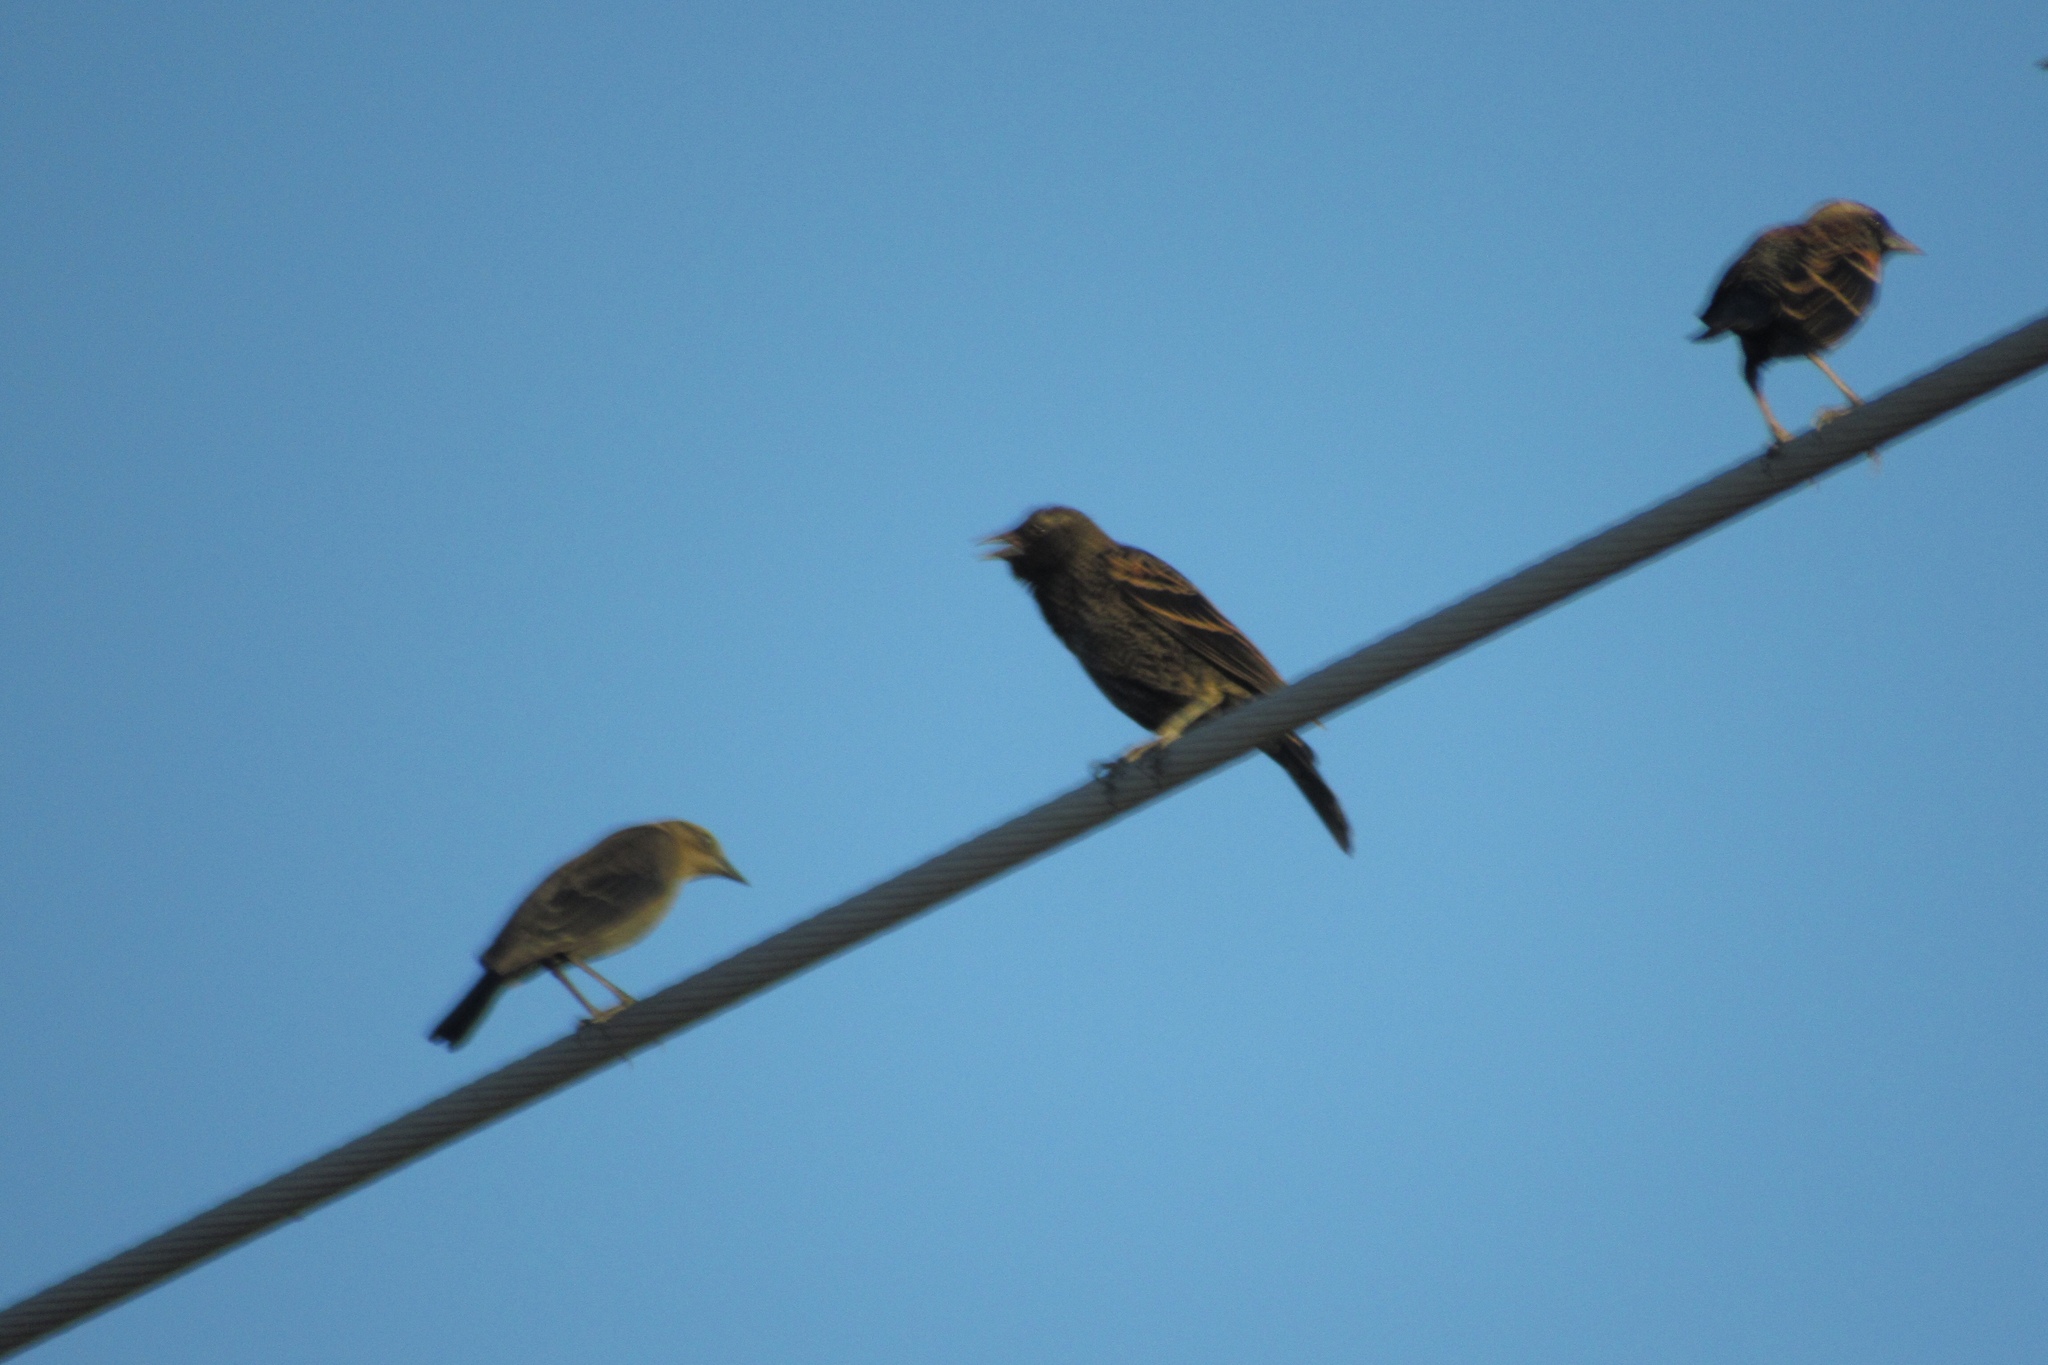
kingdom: Animalia
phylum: Chordata
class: Aves
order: Passeriformes
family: Icteridae
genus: Agelaius
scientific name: Agelaius phoeniceus
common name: Red-winged blackbird
